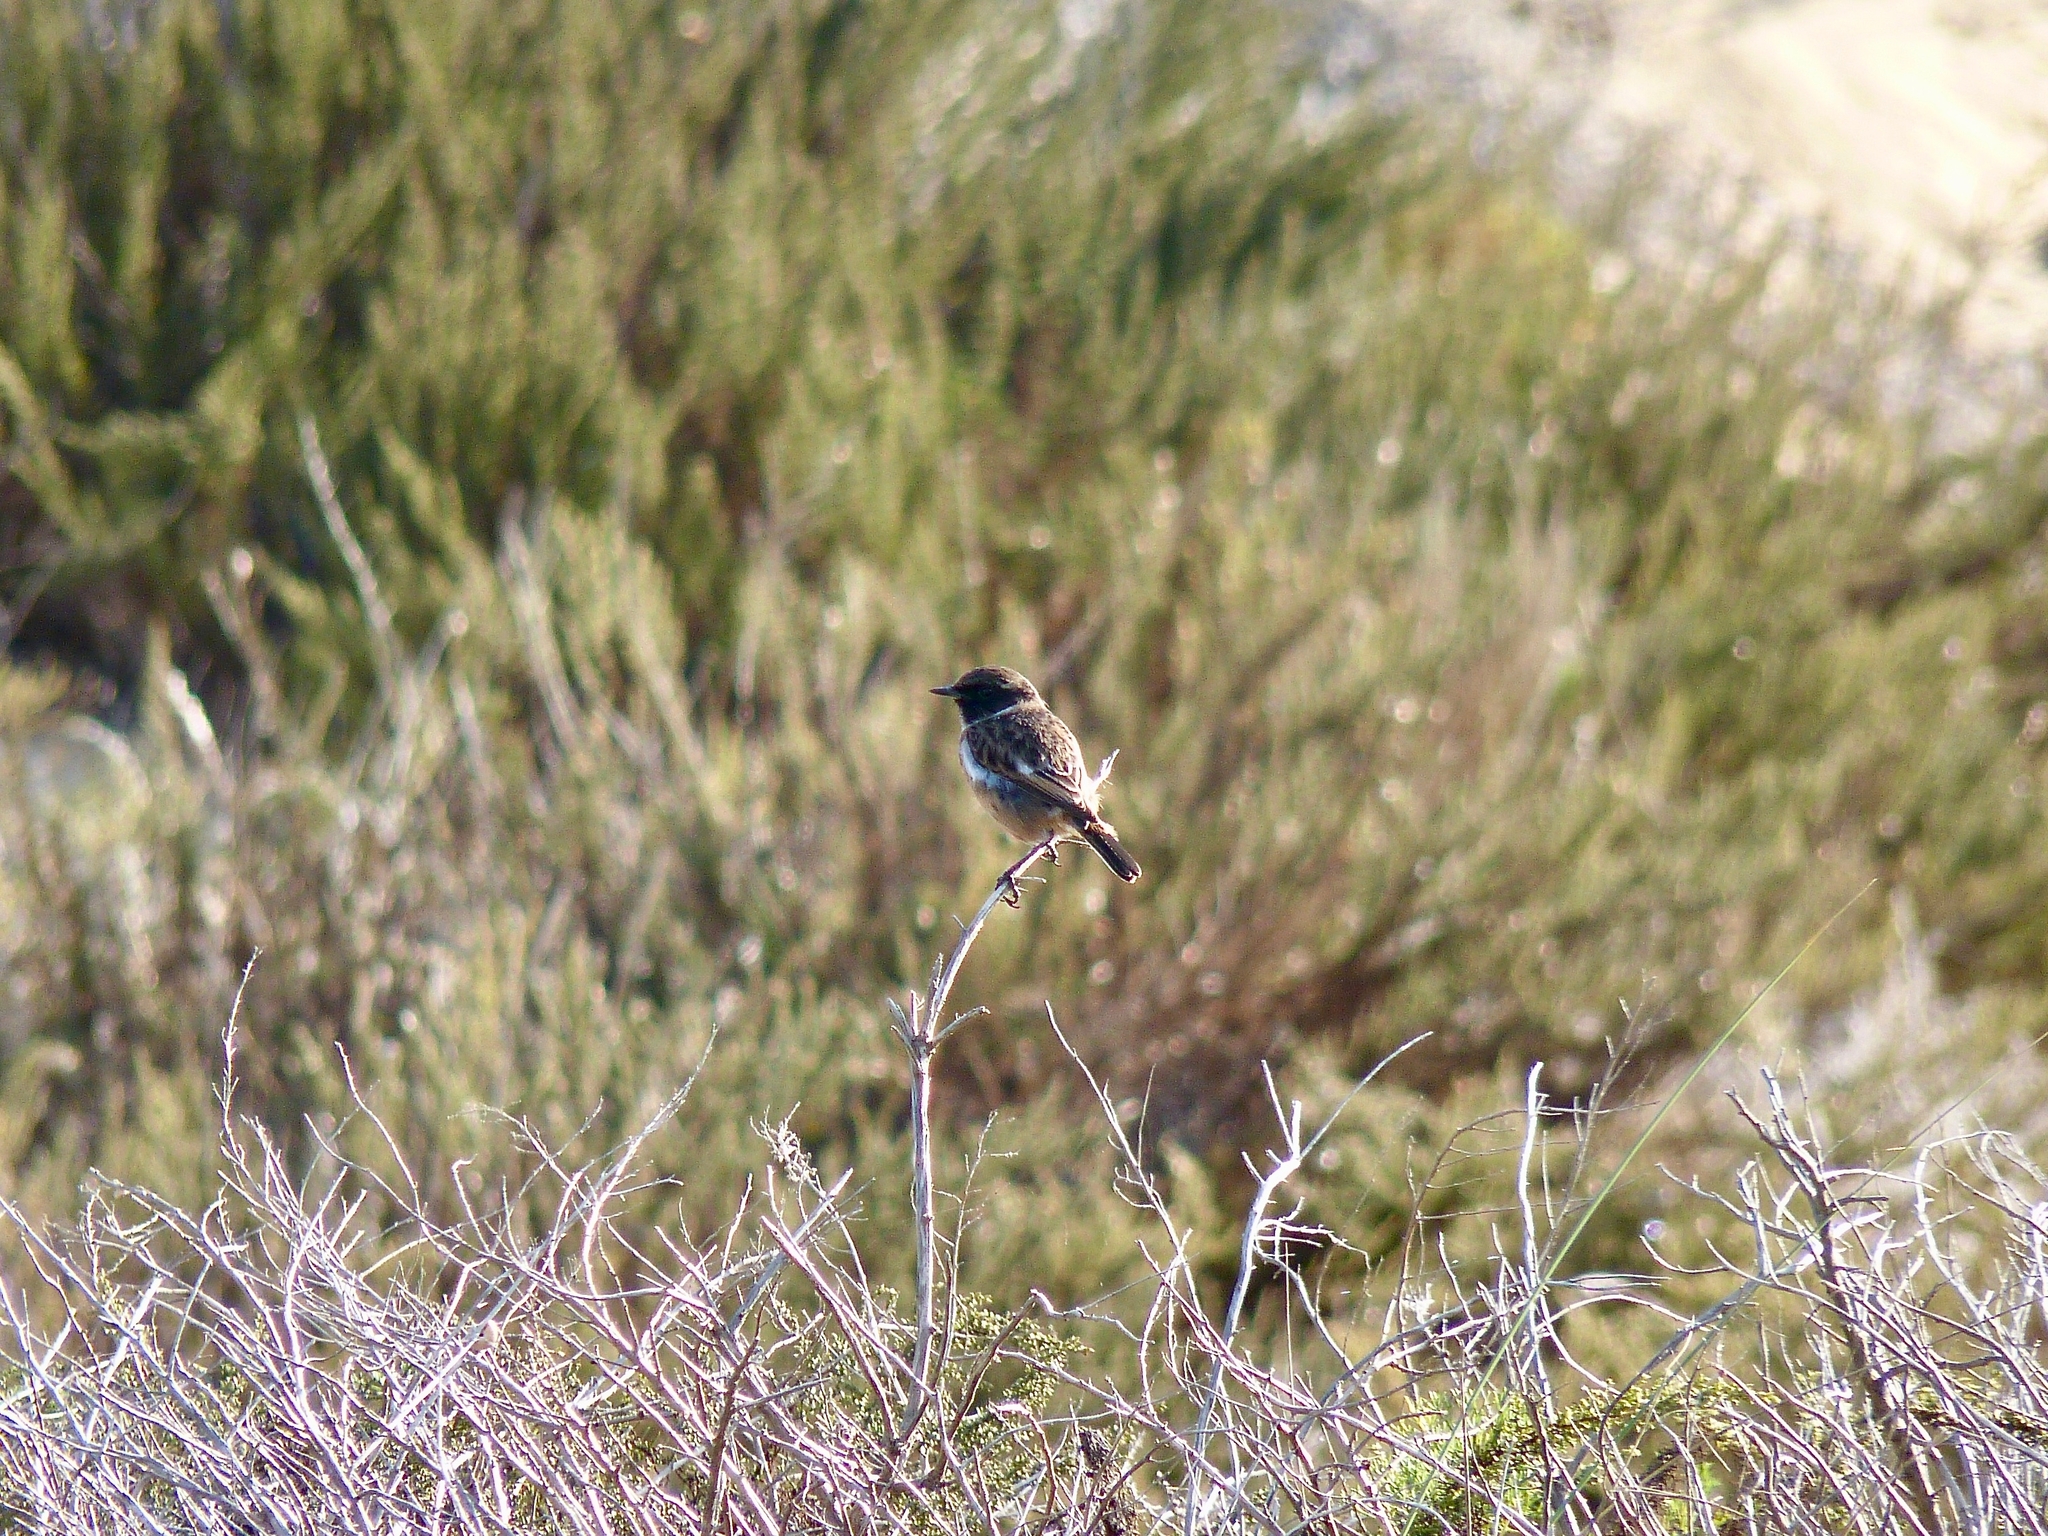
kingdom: Animalia
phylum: Chordata
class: Aves
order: Passeriformes
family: Muscicapidae
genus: Saxicola
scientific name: Saxicola rubicola
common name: European stonechat
